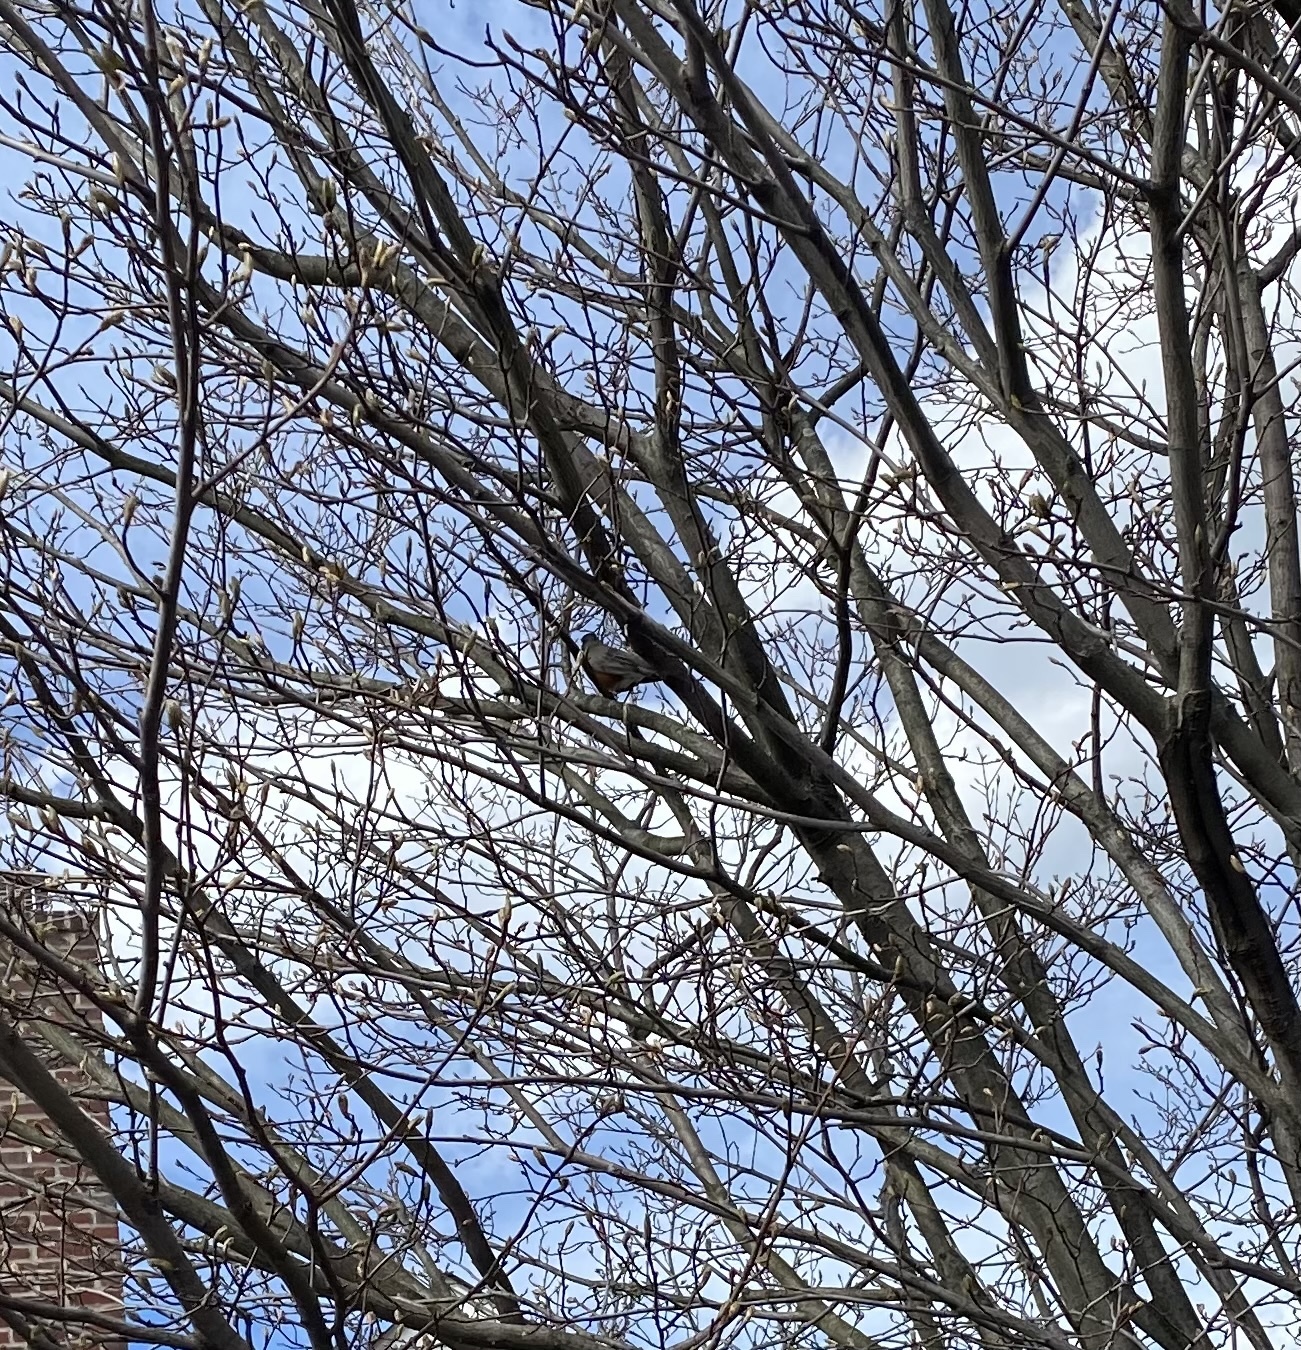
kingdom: Animalia
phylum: Chordata
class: Aves
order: Passeriformes
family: Turdidae
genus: Turdus
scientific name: Turdus migratorius
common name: American robin
